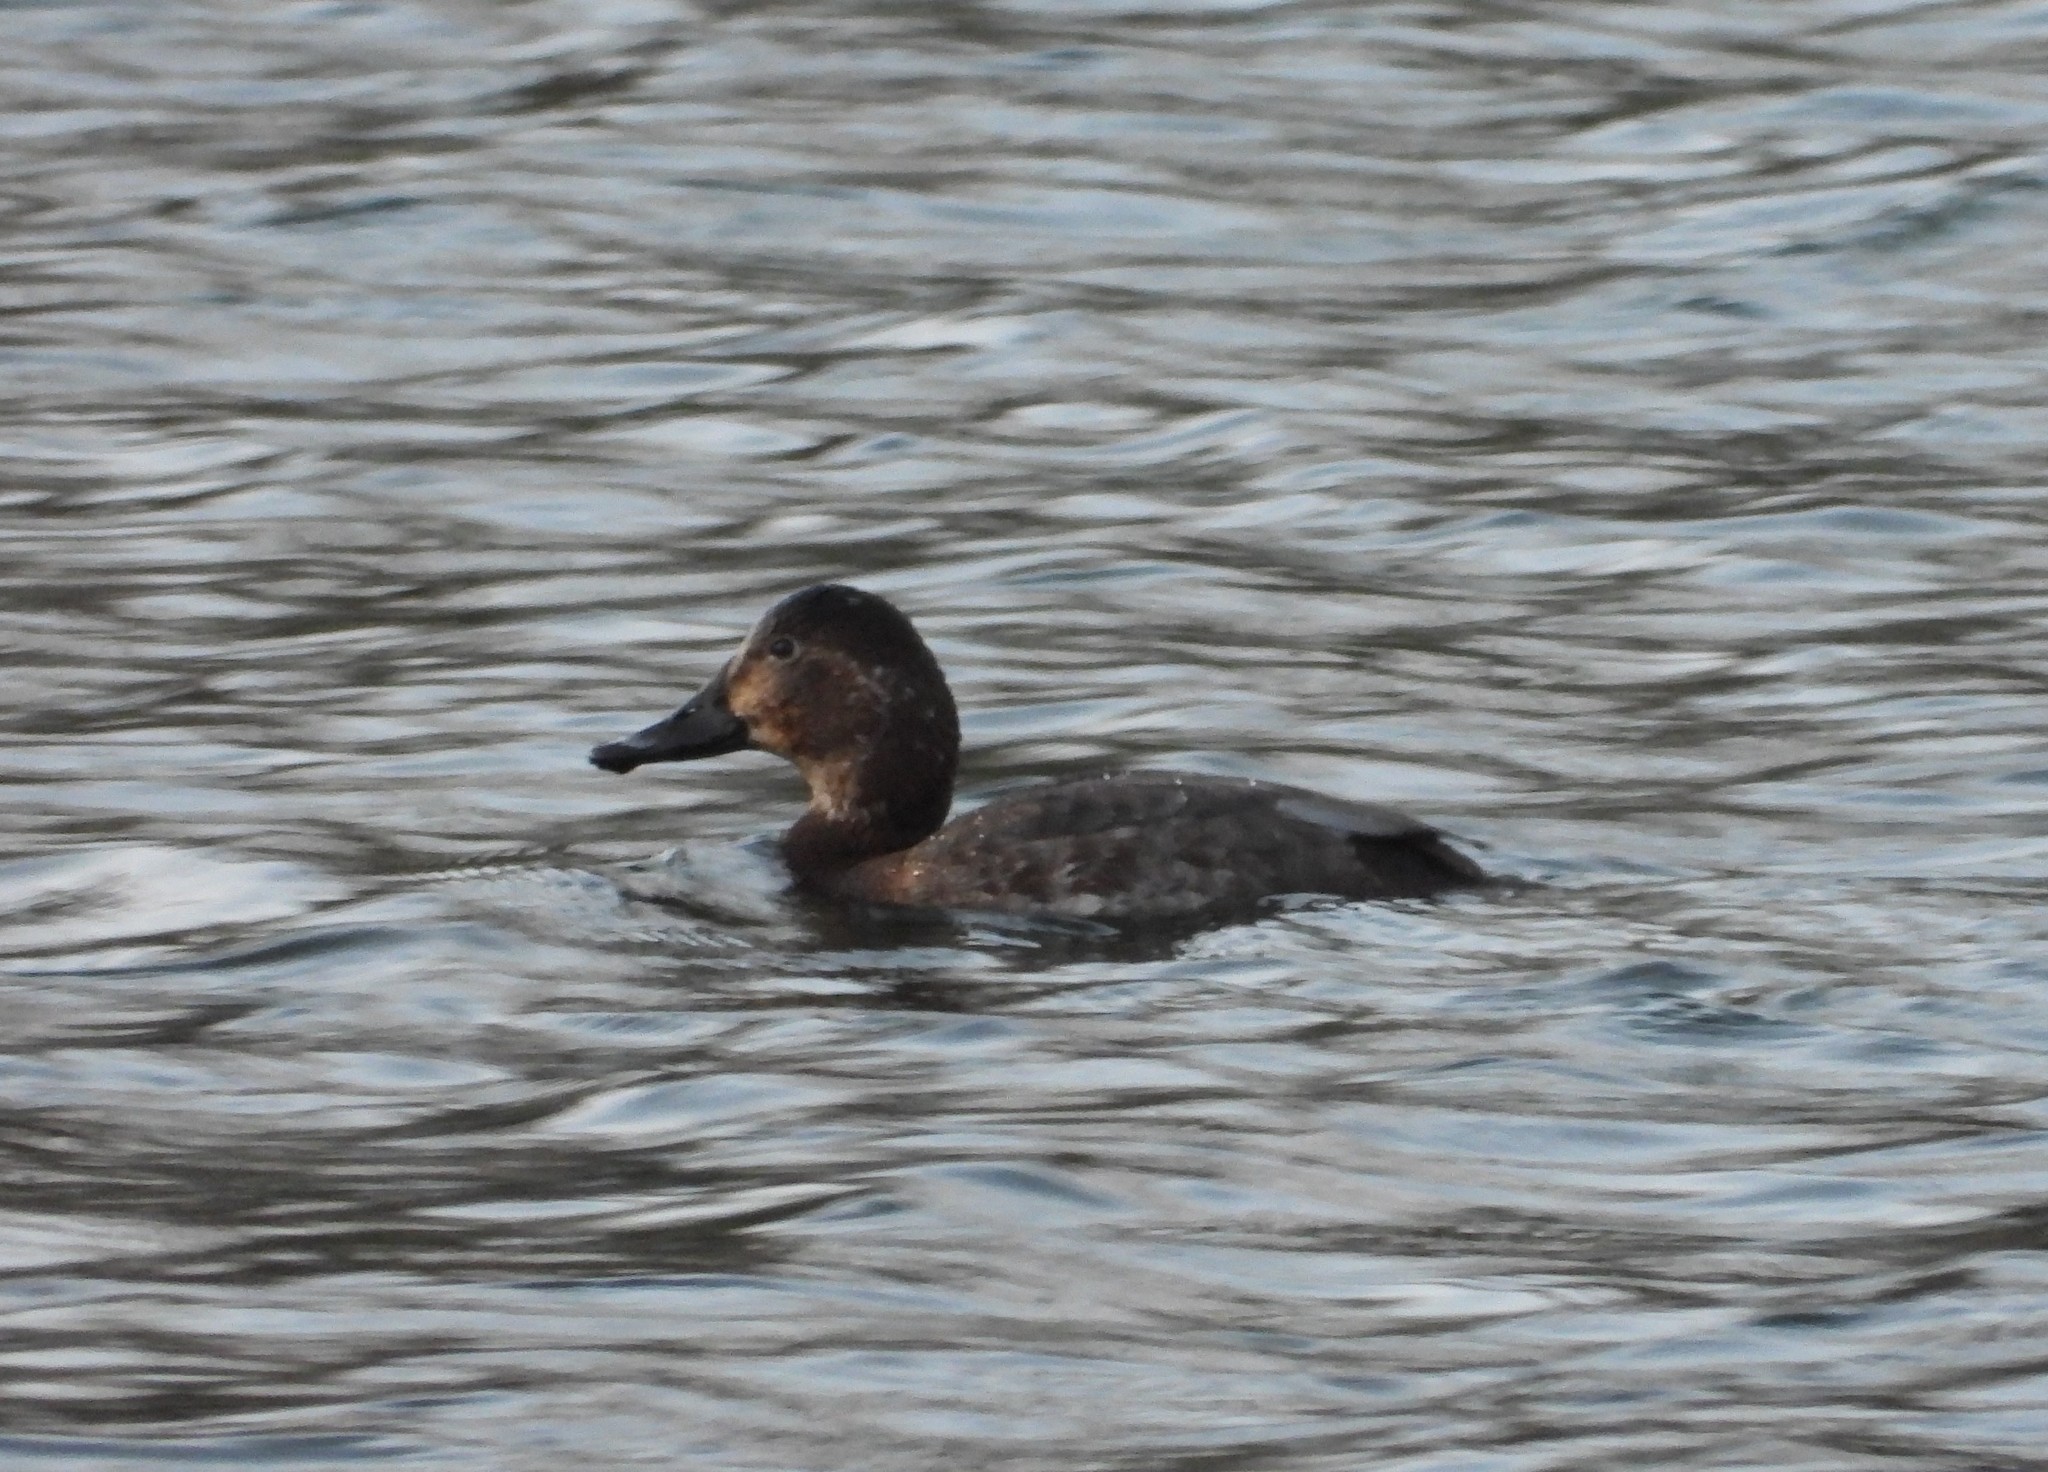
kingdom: Animalia
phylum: Chordata
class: Aves
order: Anseriformes
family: Anatidae
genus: Aythya
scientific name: Aythya ferina
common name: Common pochard
